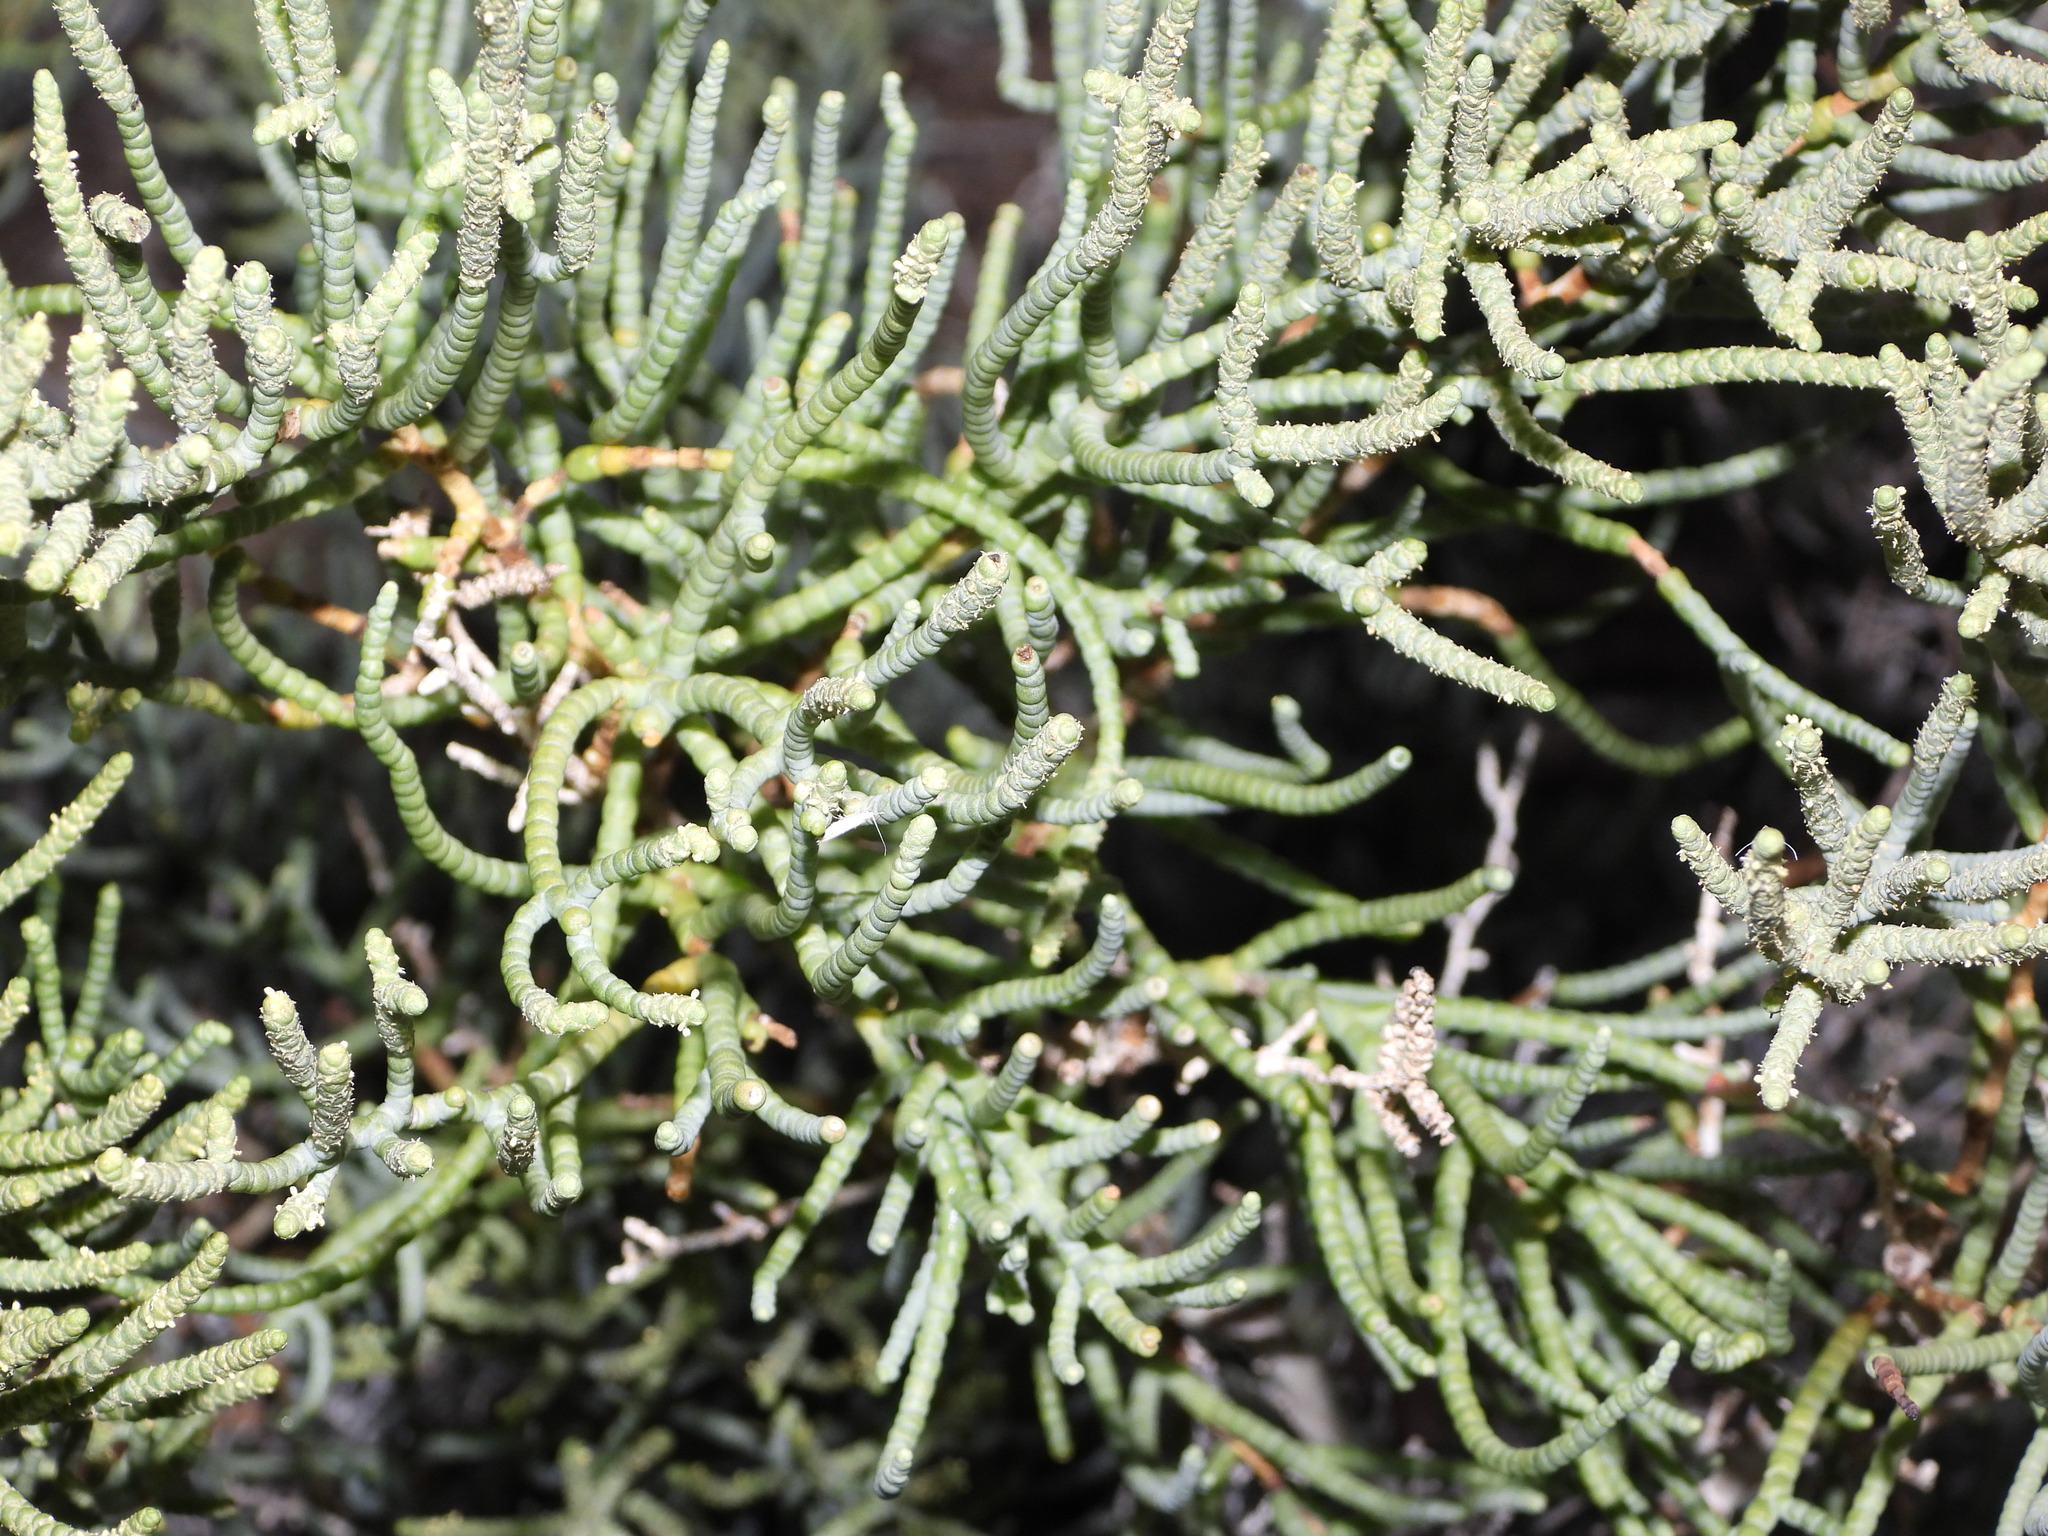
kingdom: Plantae
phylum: Tracheophyta
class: Magnoliopsida
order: Caryophyllales
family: Amaranthaceae
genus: Allenrolfea
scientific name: Allenrolfea occidentalis
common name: Iodine-bush
